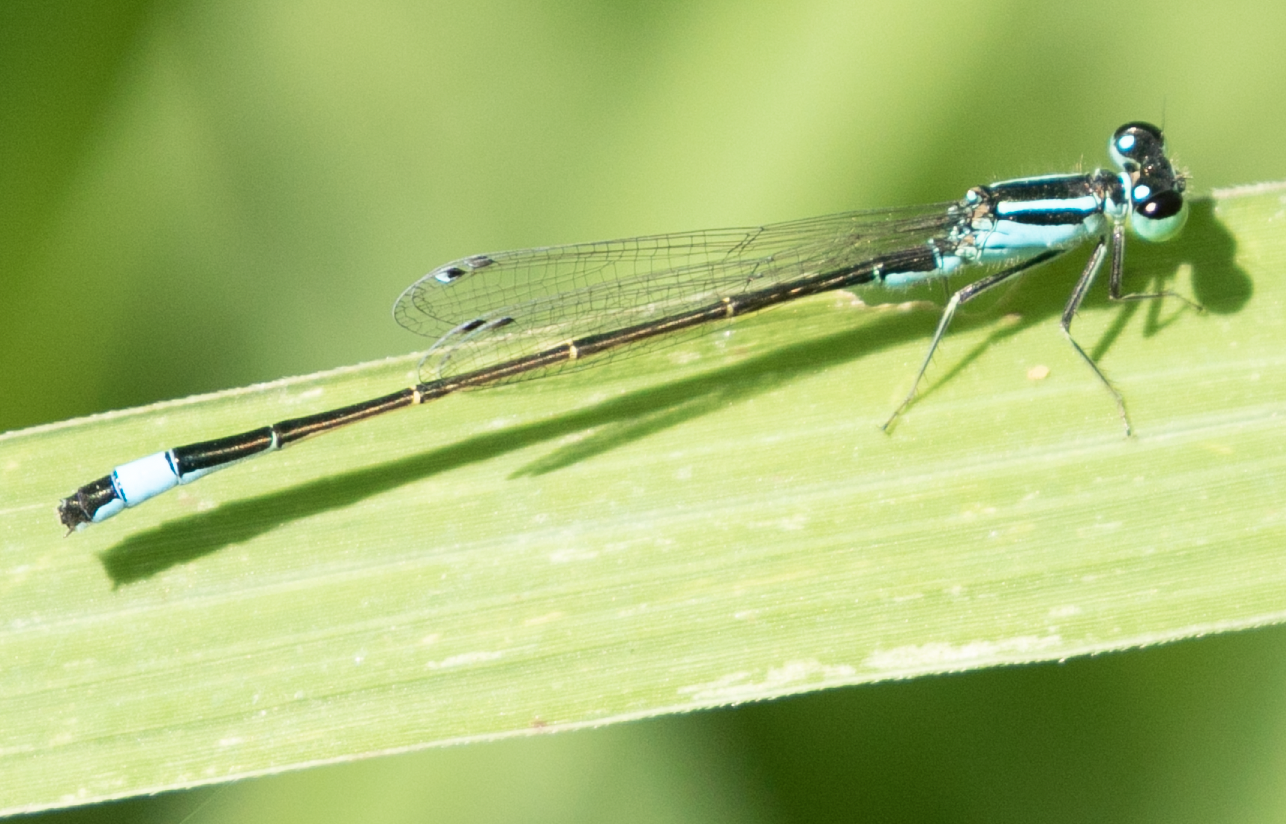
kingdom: Animalia
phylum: Arthropoda
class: Insecta
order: Odonata
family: Coenagrionidae
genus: Ischnura
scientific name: Ischnura elegans
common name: Blue-tailed damselfly
